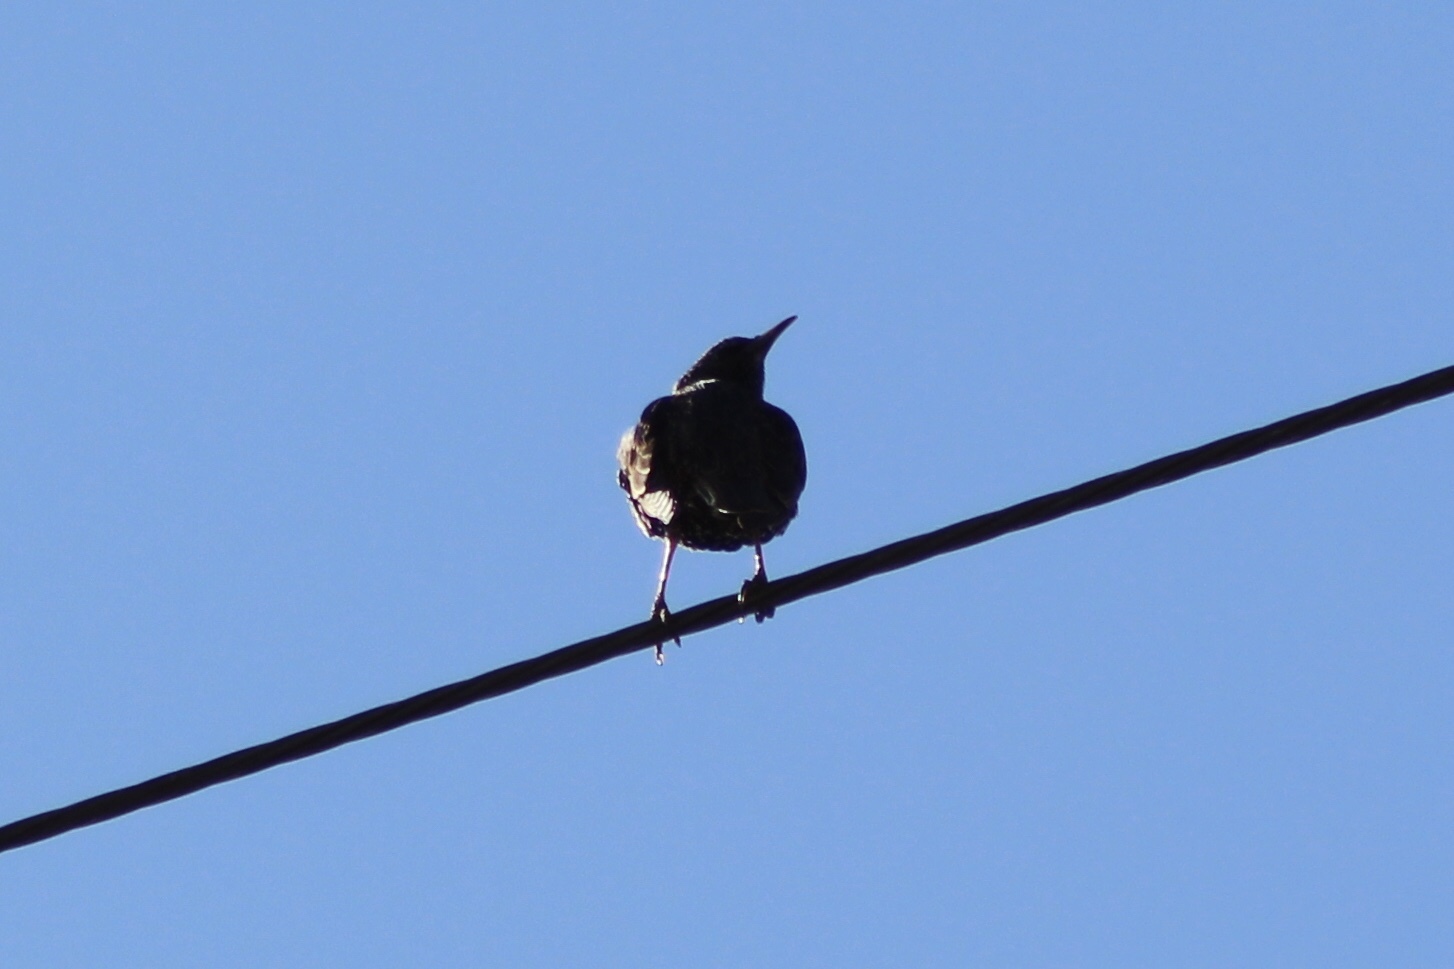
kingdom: Animalia
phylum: Chordata
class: Aves
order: Passeriformes
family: Sturnidae
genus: Sturnus
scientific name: Sturnus vulgaris
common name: Common starling
